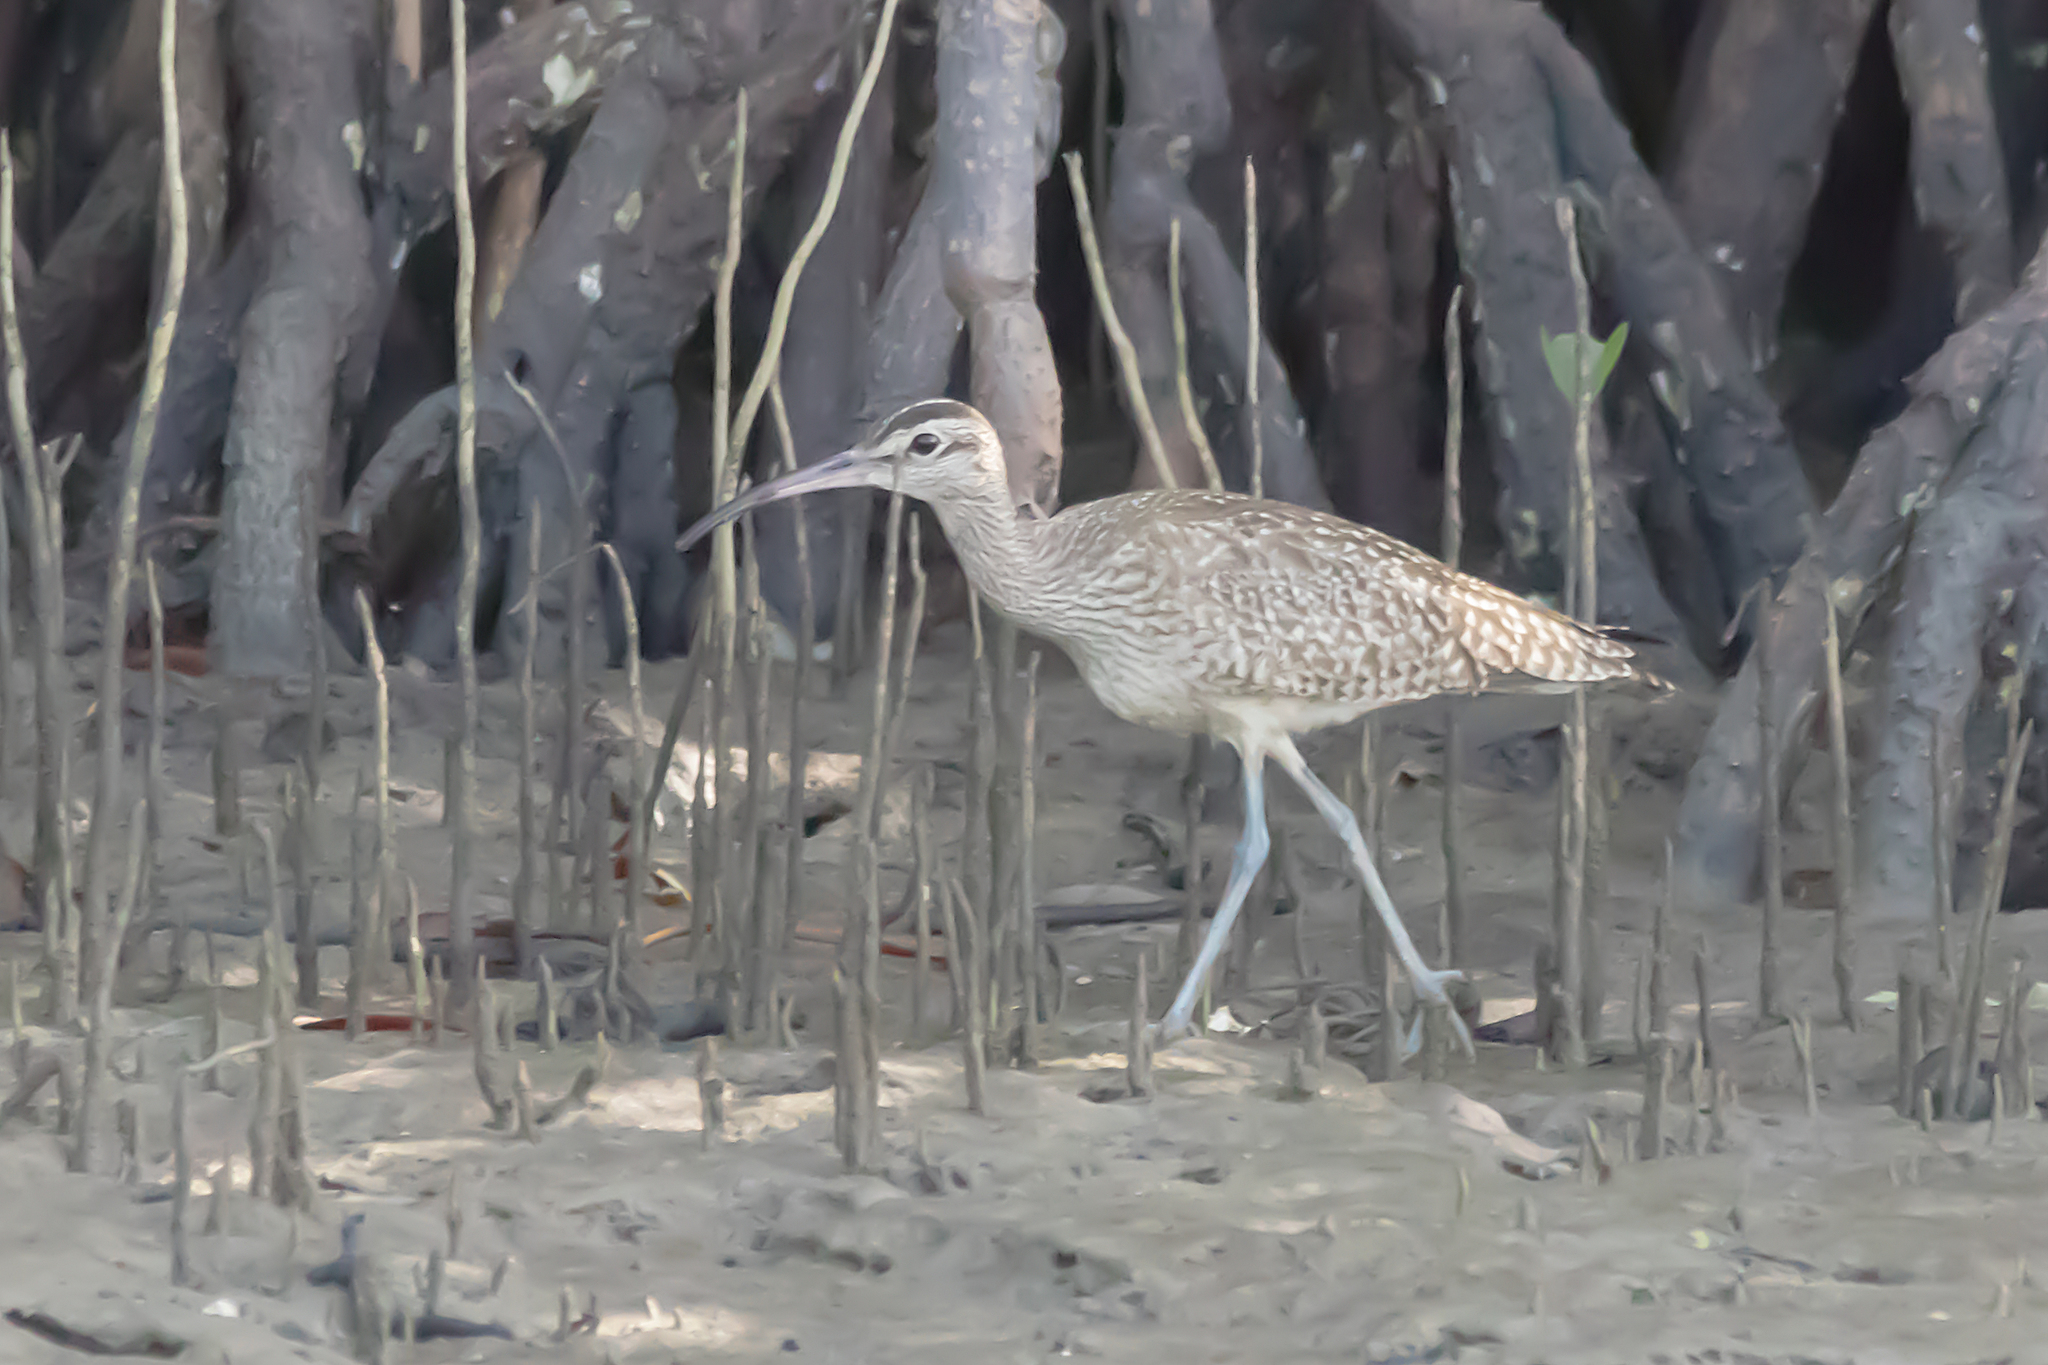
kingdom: Animalia
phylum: Chordata
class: Aves
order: Charadriiformes
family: Scolopacidae
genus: Numenius
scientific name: Numenius phaeopus
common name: Whimbrel
